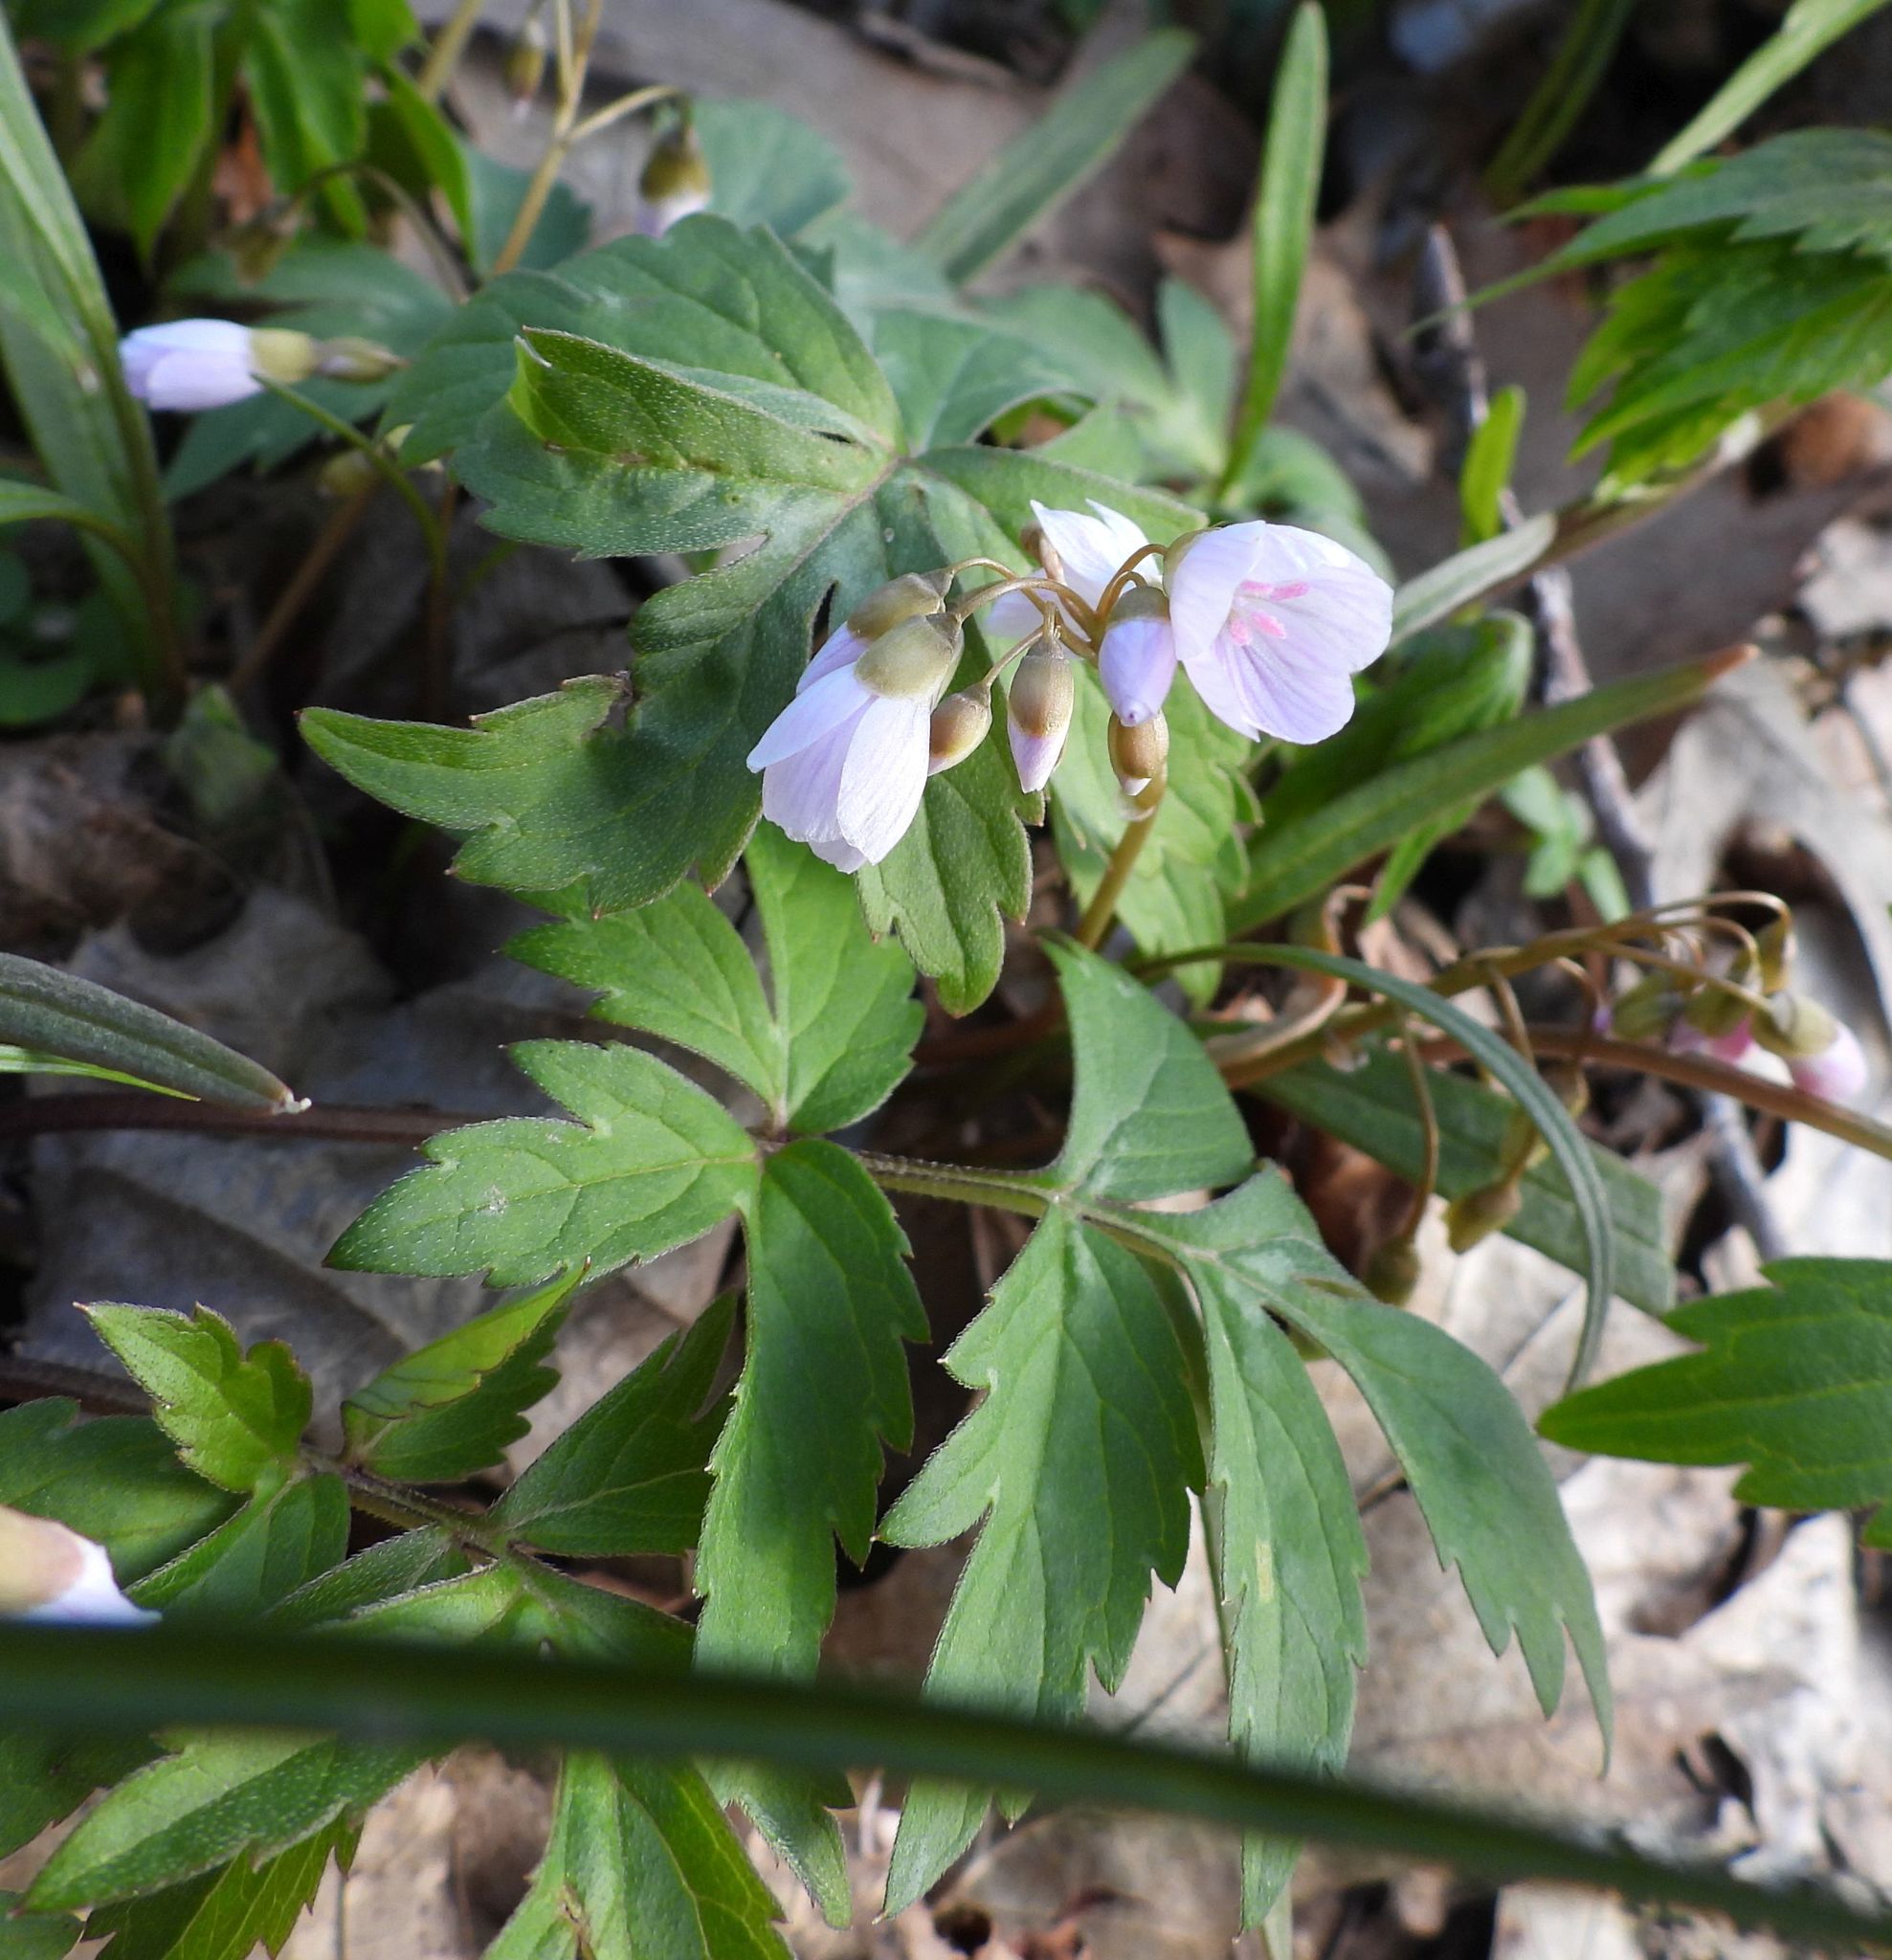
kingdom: Plantae
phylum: Tracheophyta
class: Magnoliopsida
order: Caryophyllales
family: Montiaceae
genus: Claytonia
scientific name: Claytonia virginica
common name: Virginia springbeauty
